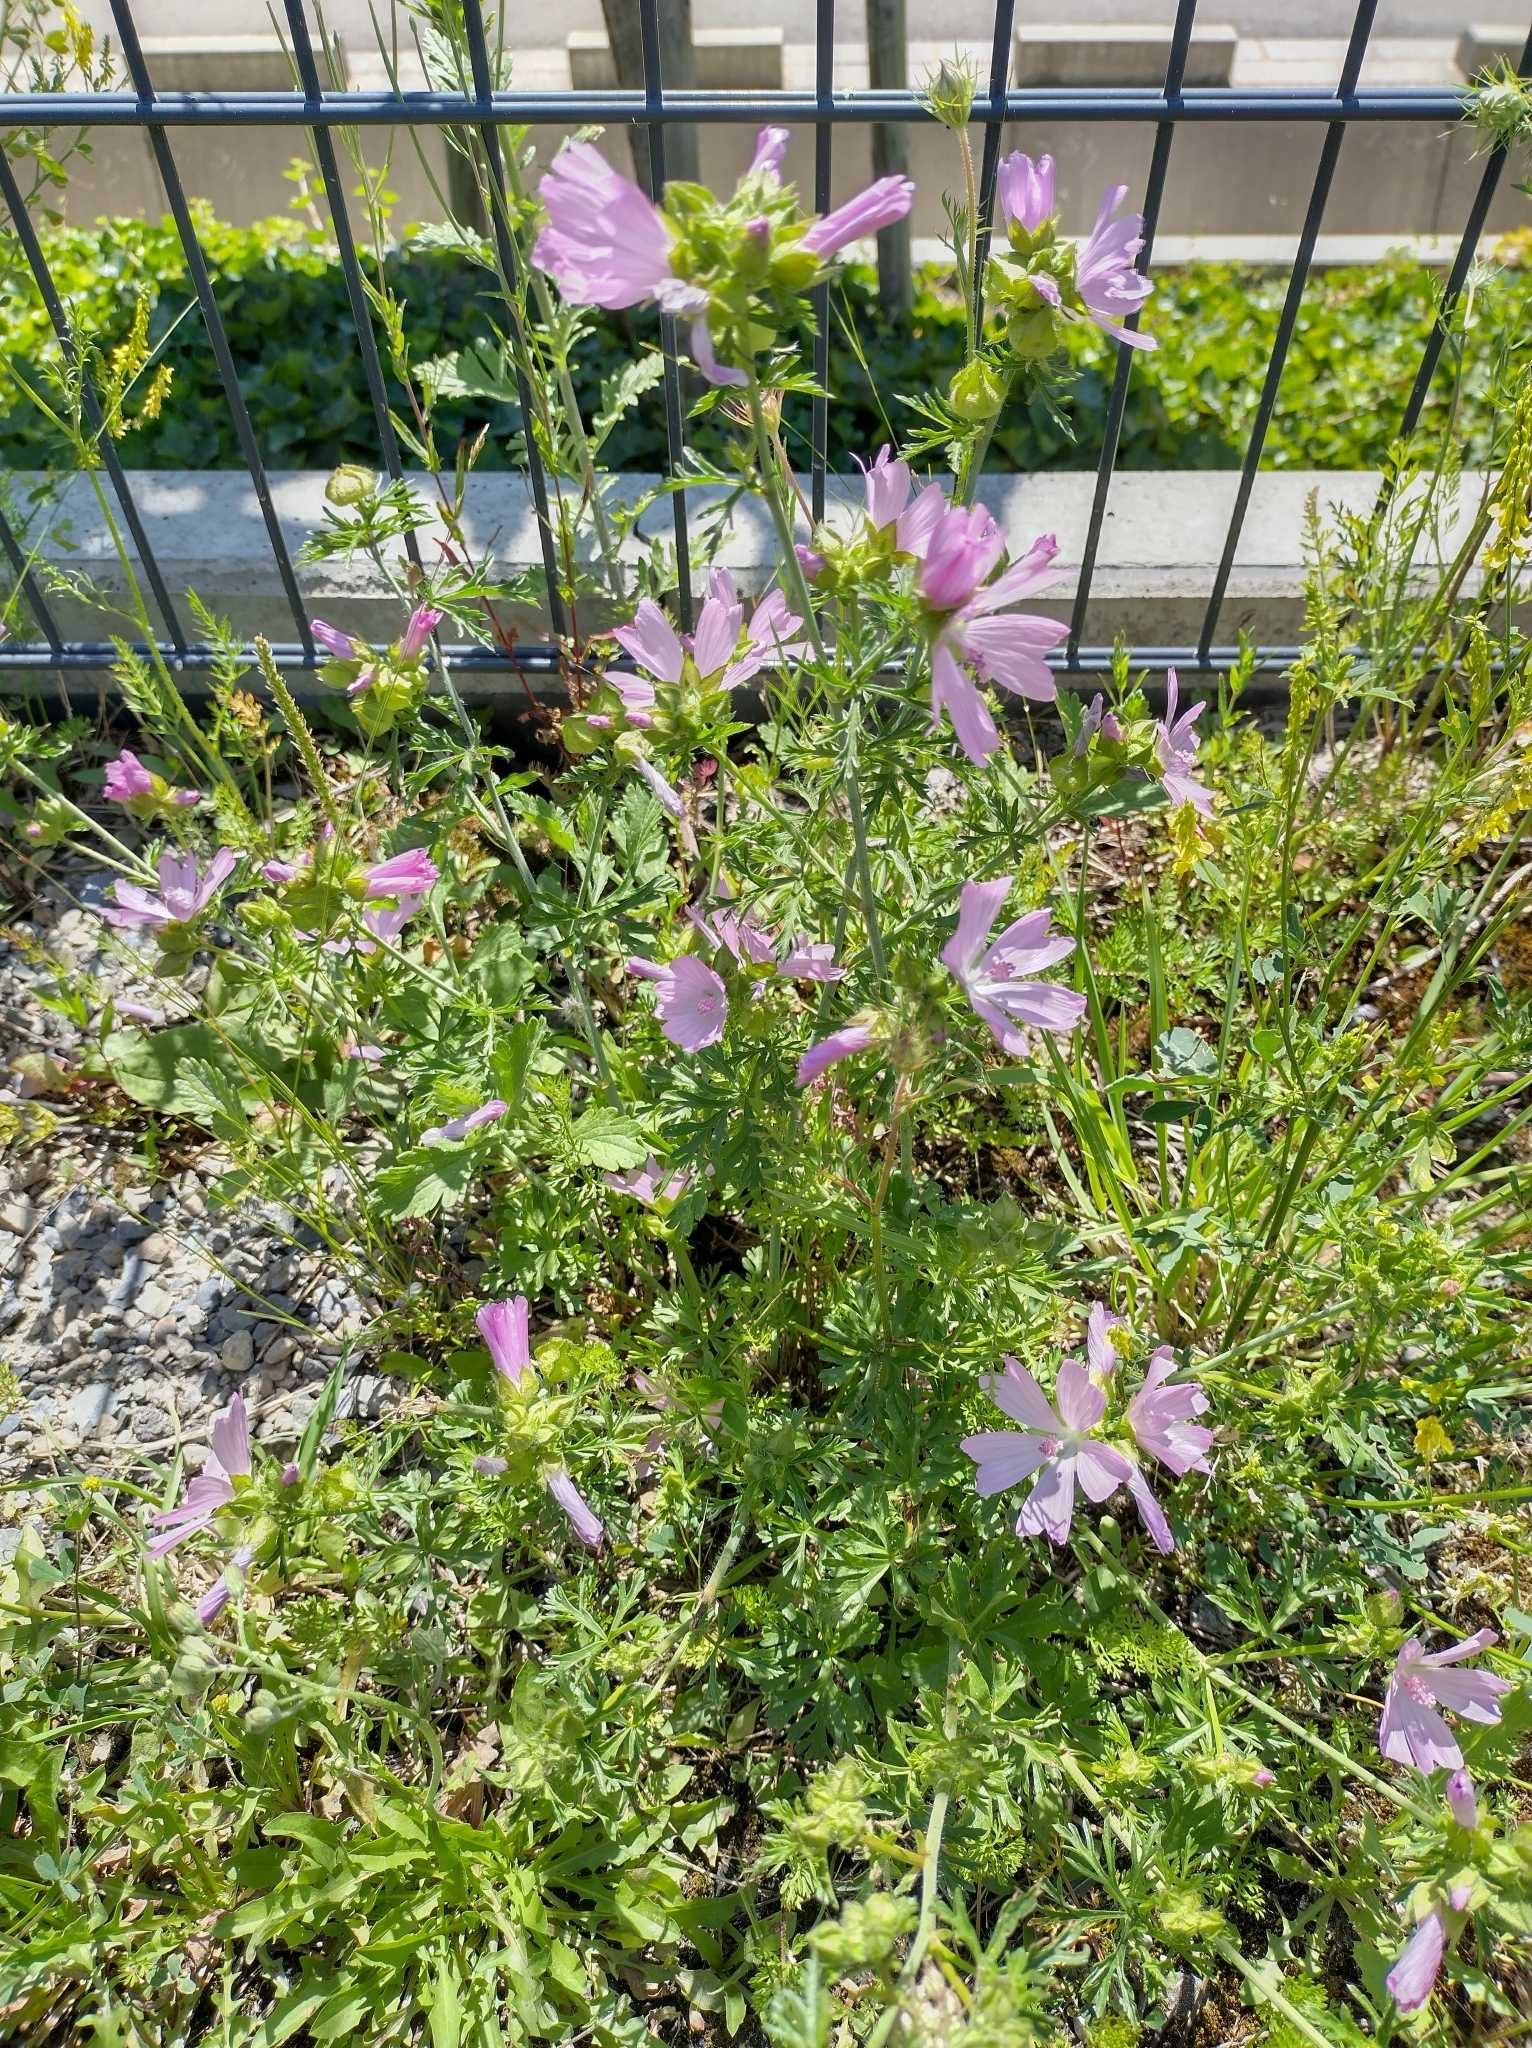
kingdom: Plantae
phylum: Tracheophyta
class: Magnoliopsida
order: Malvales
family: Malvaceae
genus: Malva
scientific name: Malva moschata
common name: Musk mallow
